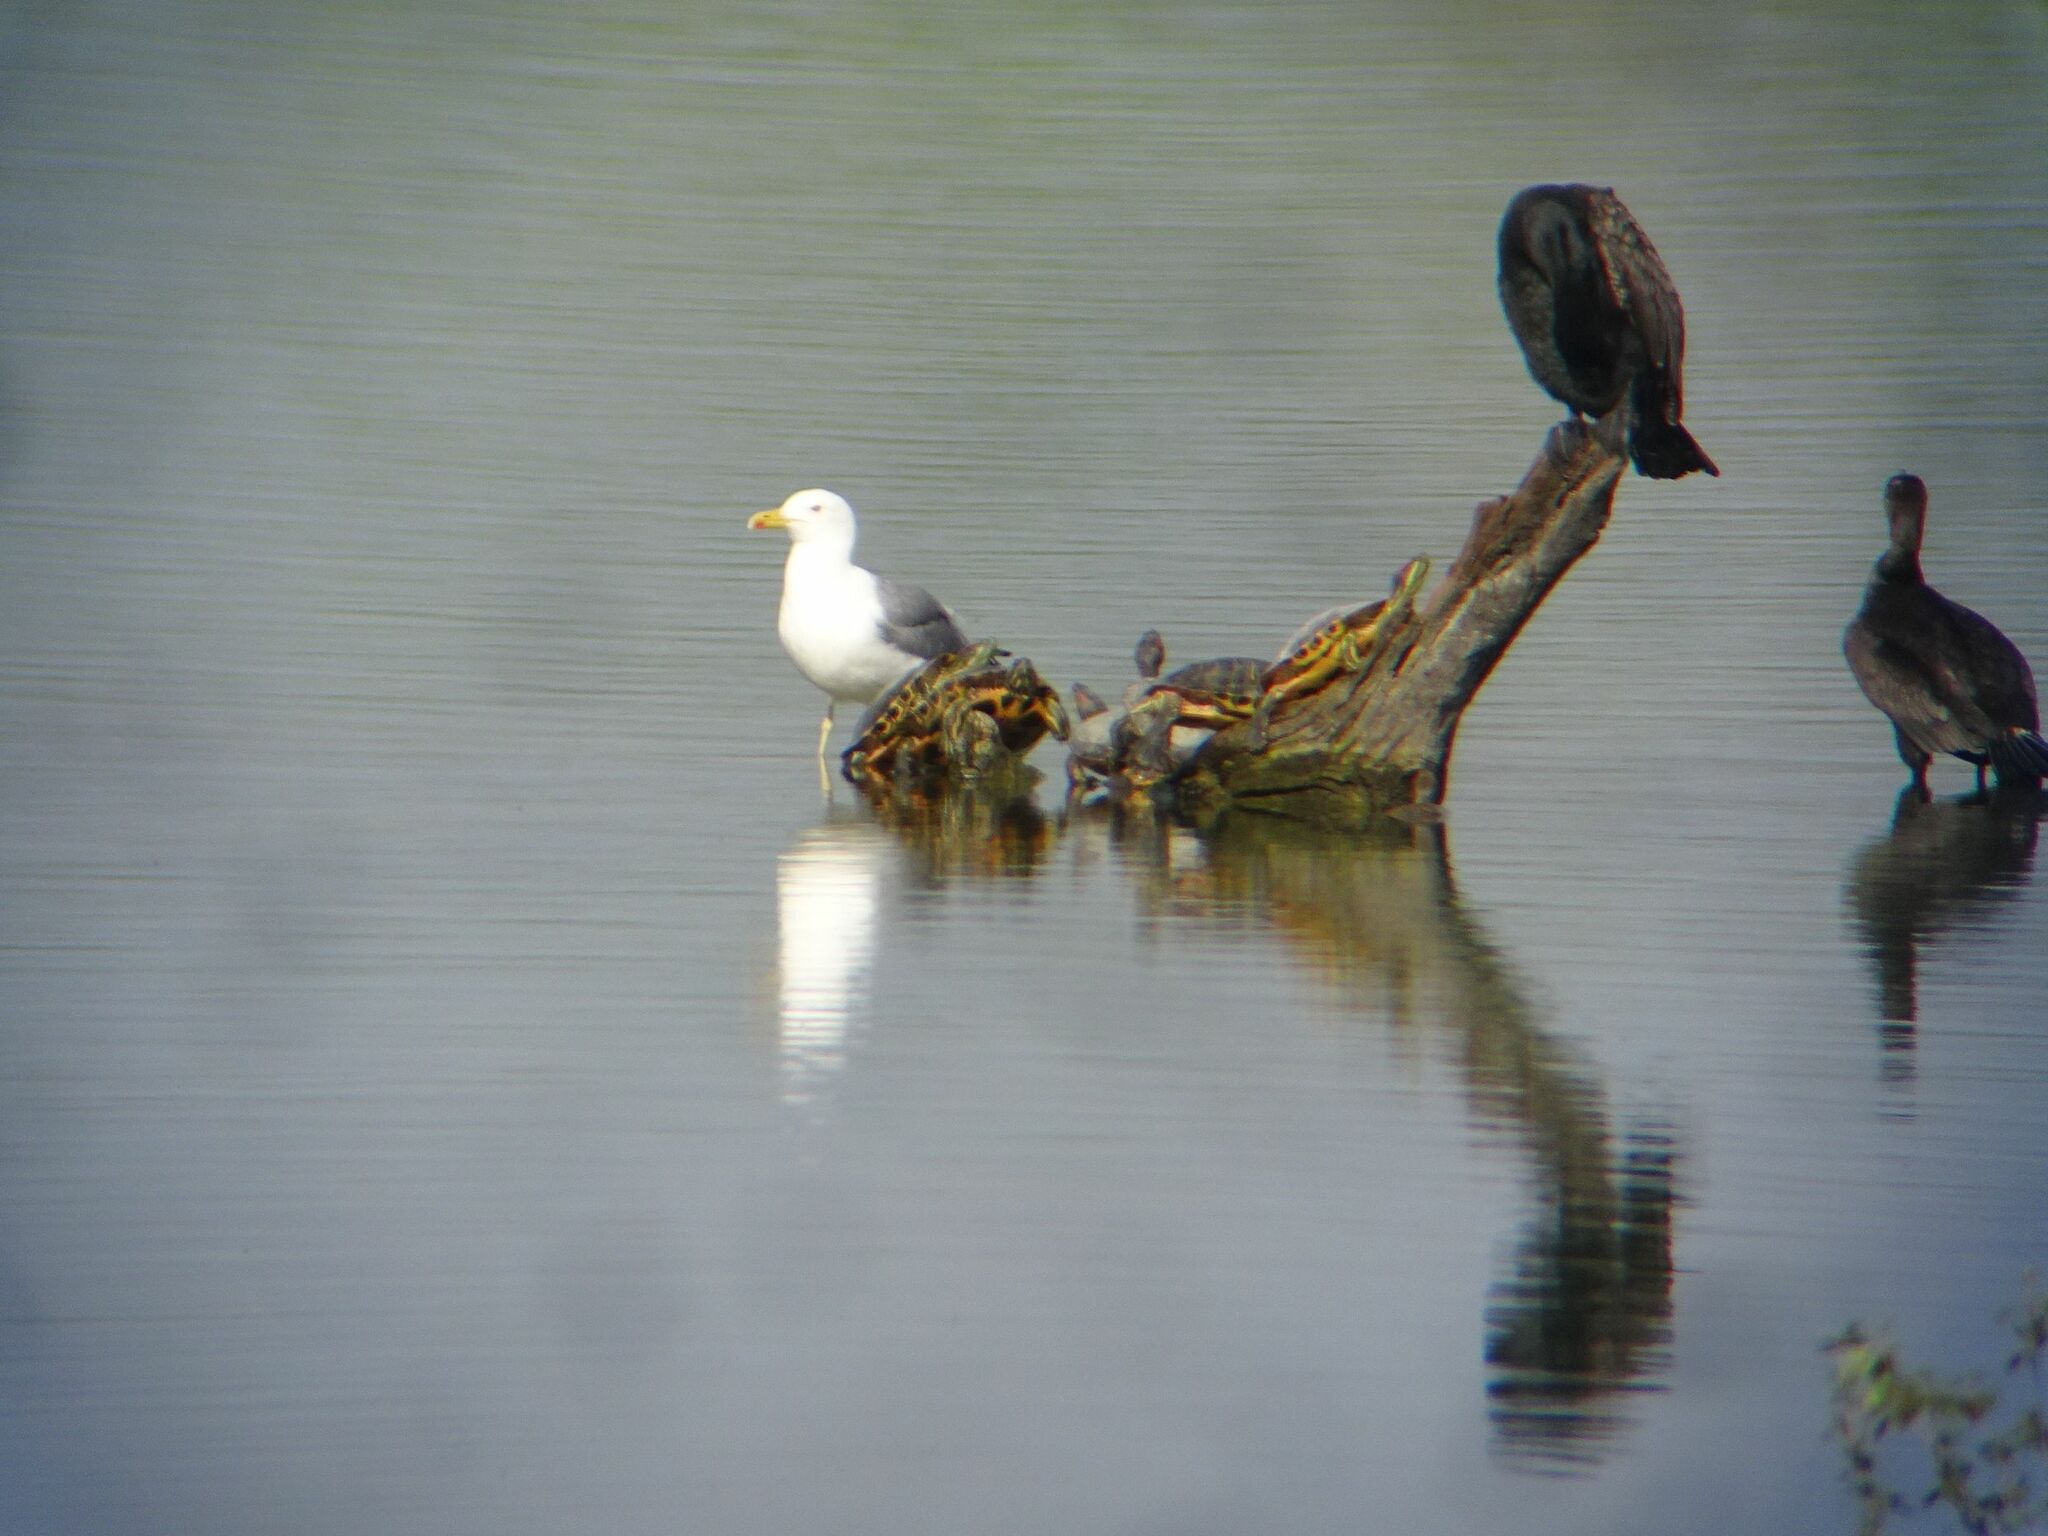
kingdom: Animalia
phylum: Chordata
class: Aves
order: Charadriiformes
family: Laridae
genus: Larus
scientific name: Larus michahellis
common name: Yellow-legged gull
